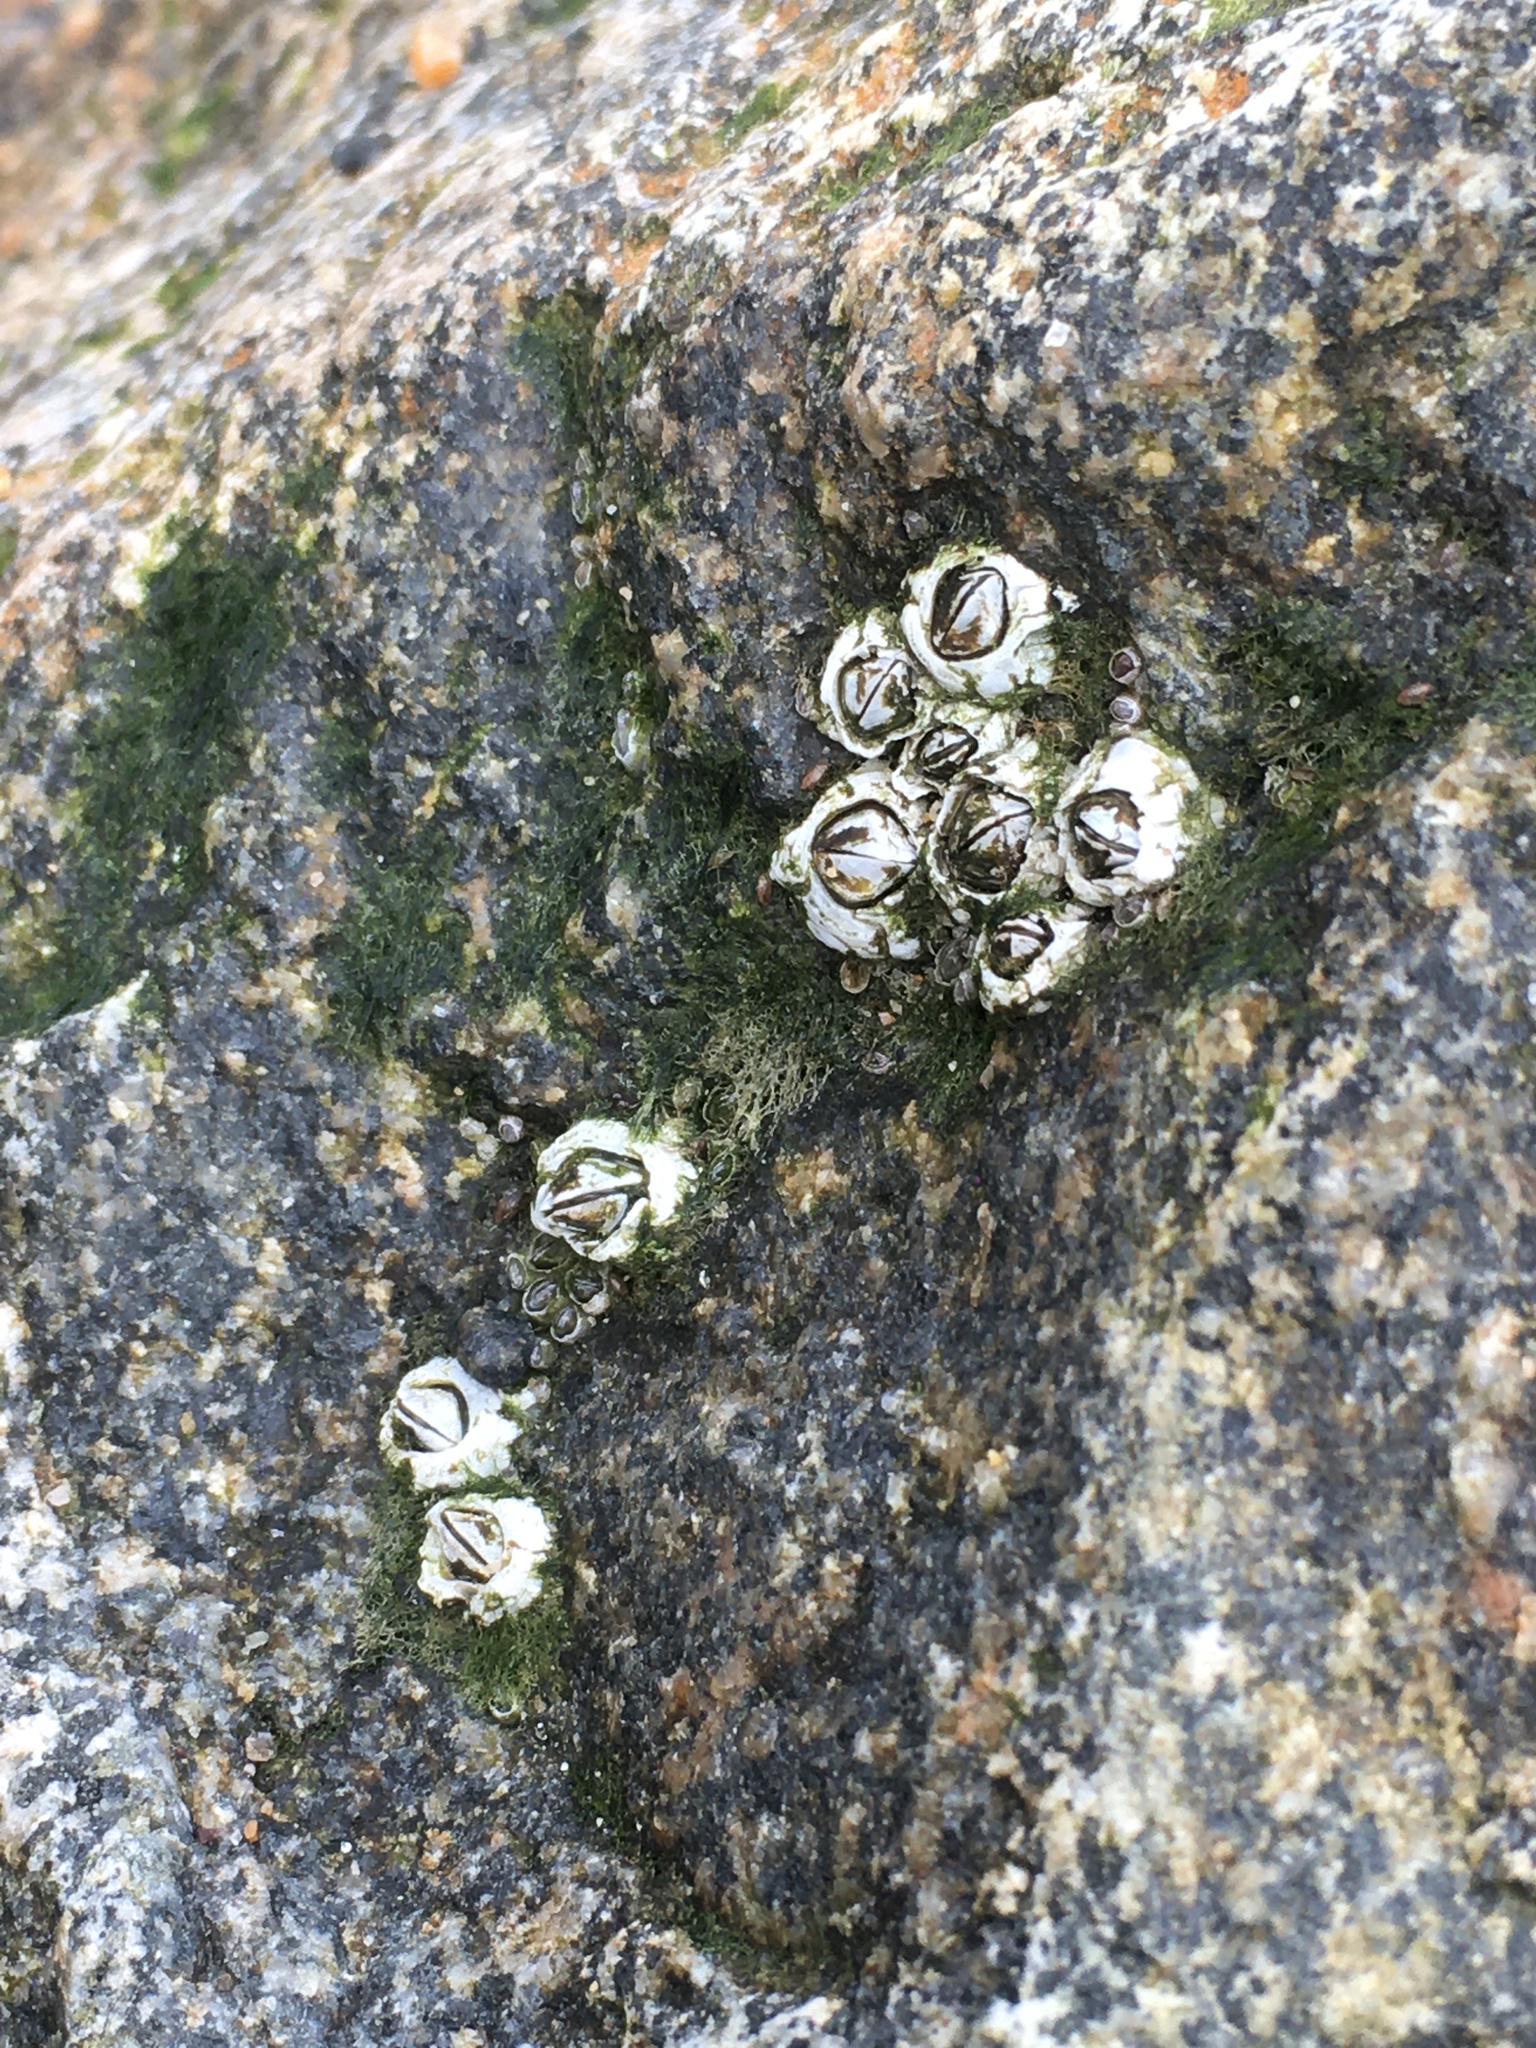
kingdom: Animalia
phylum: Arthropoda
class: Maxillopoda
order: Sessilia
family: Archaeobalanidae
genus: Semibalanus
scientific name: Semibalanus balanoides
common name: Acorn barnacle
